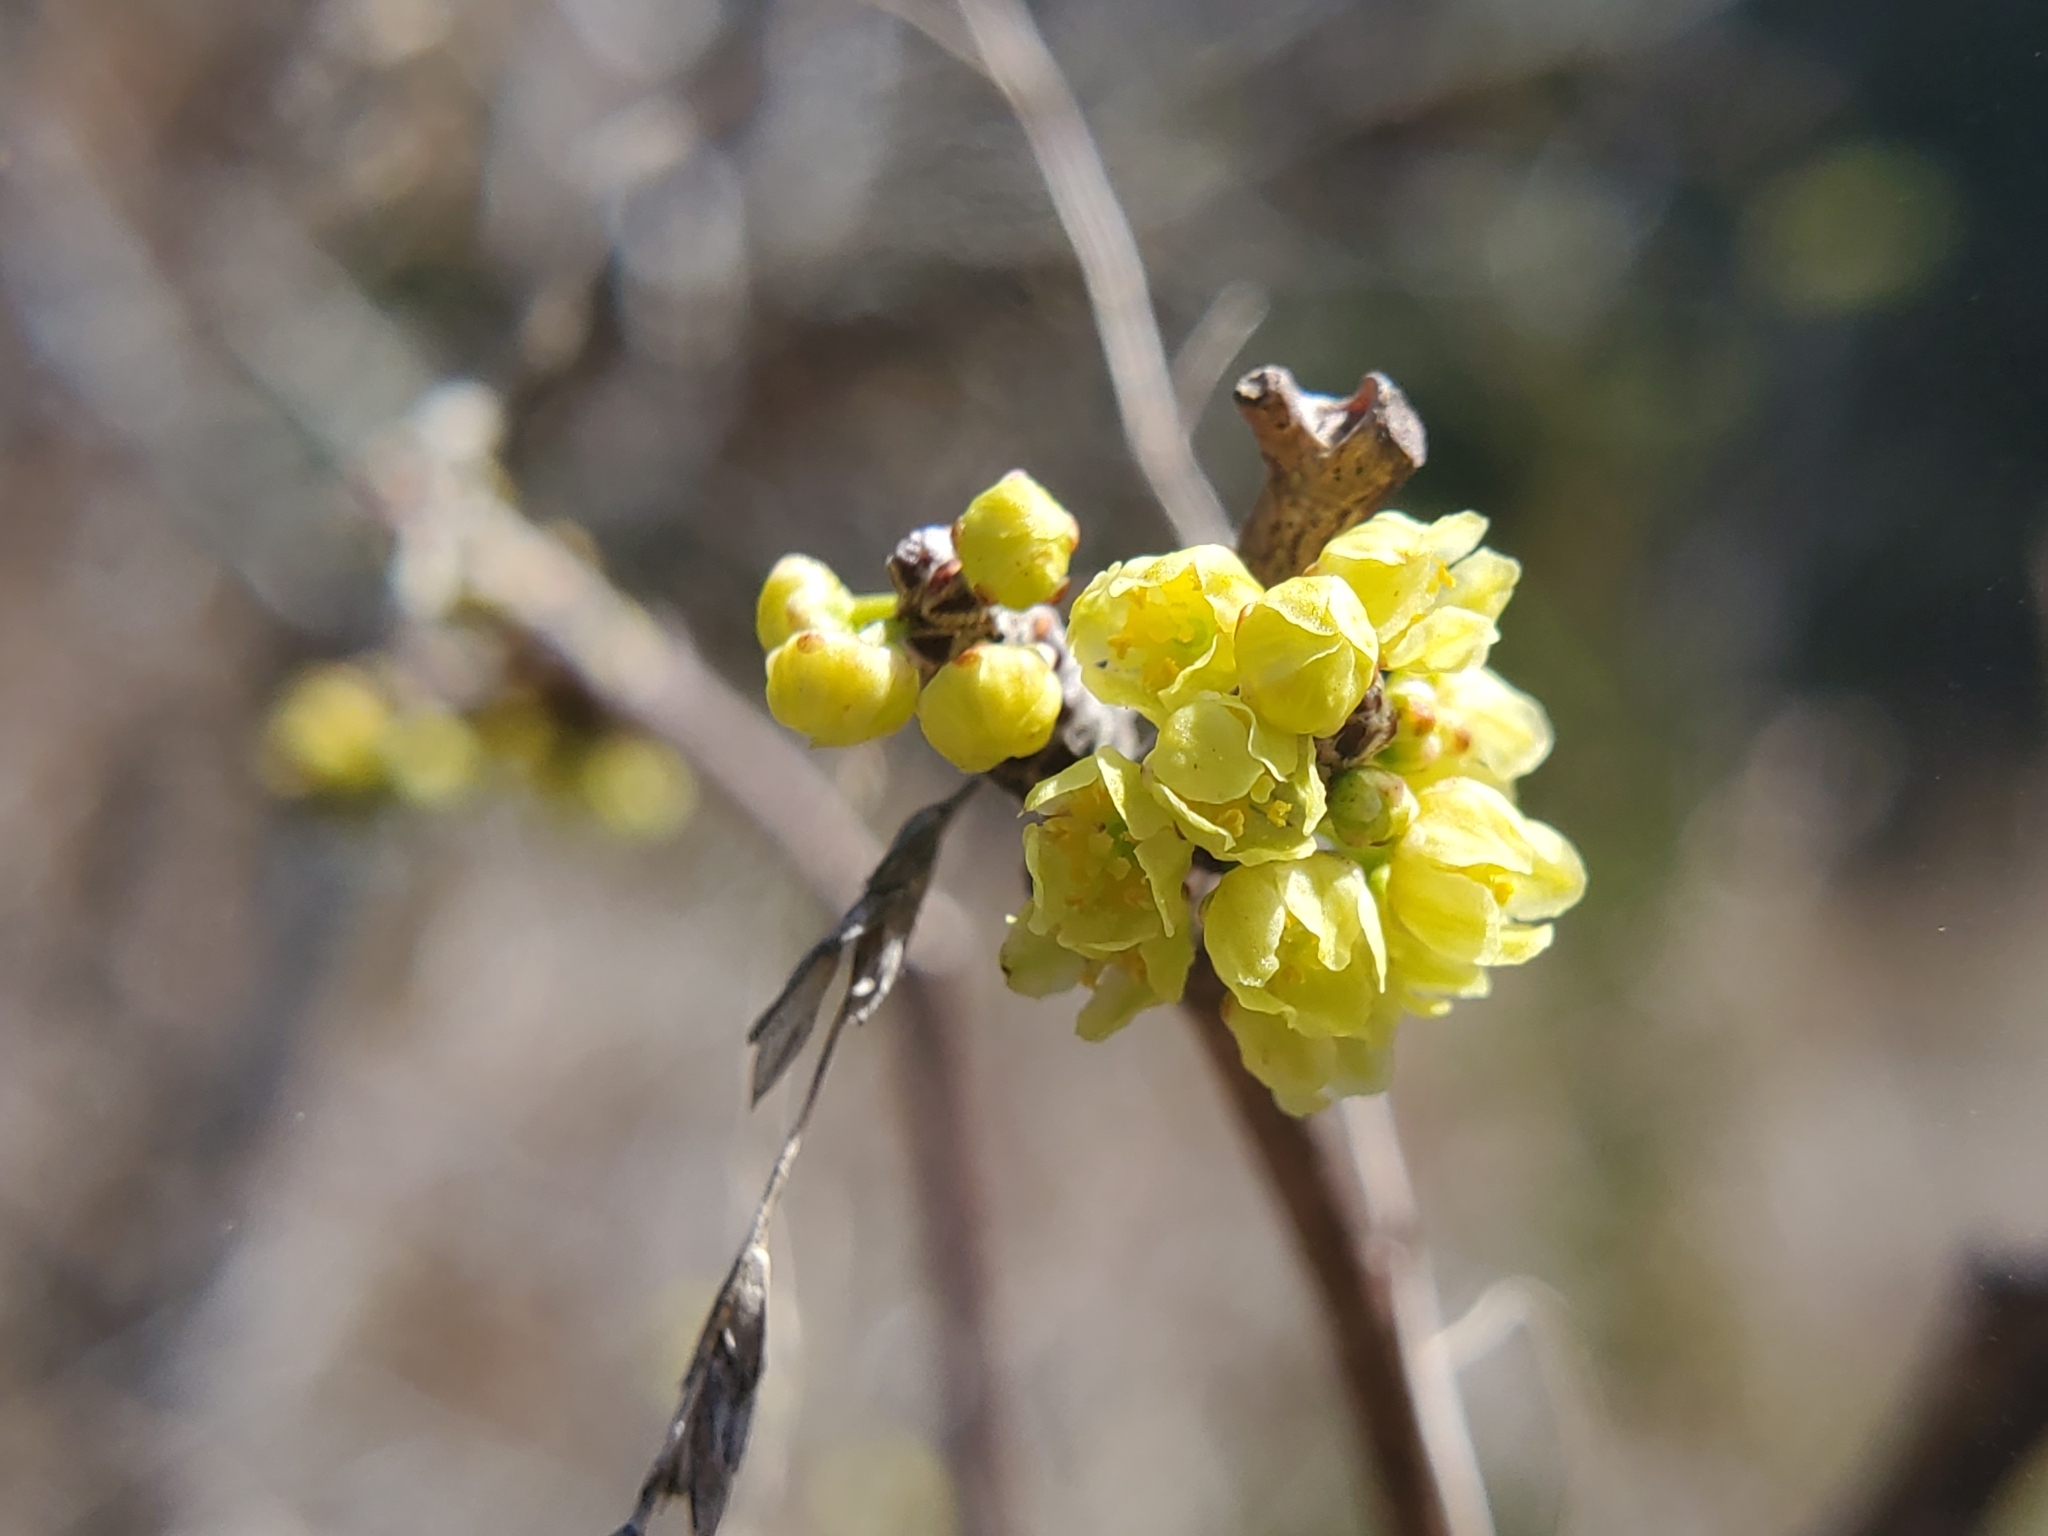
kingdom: Plantae
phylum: Tracheophyta
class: Magnoliopsida
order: Sapindales
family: Anacardiaceae
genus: Rhus
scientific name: Rhus aromatica
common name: Aromatic sumac
